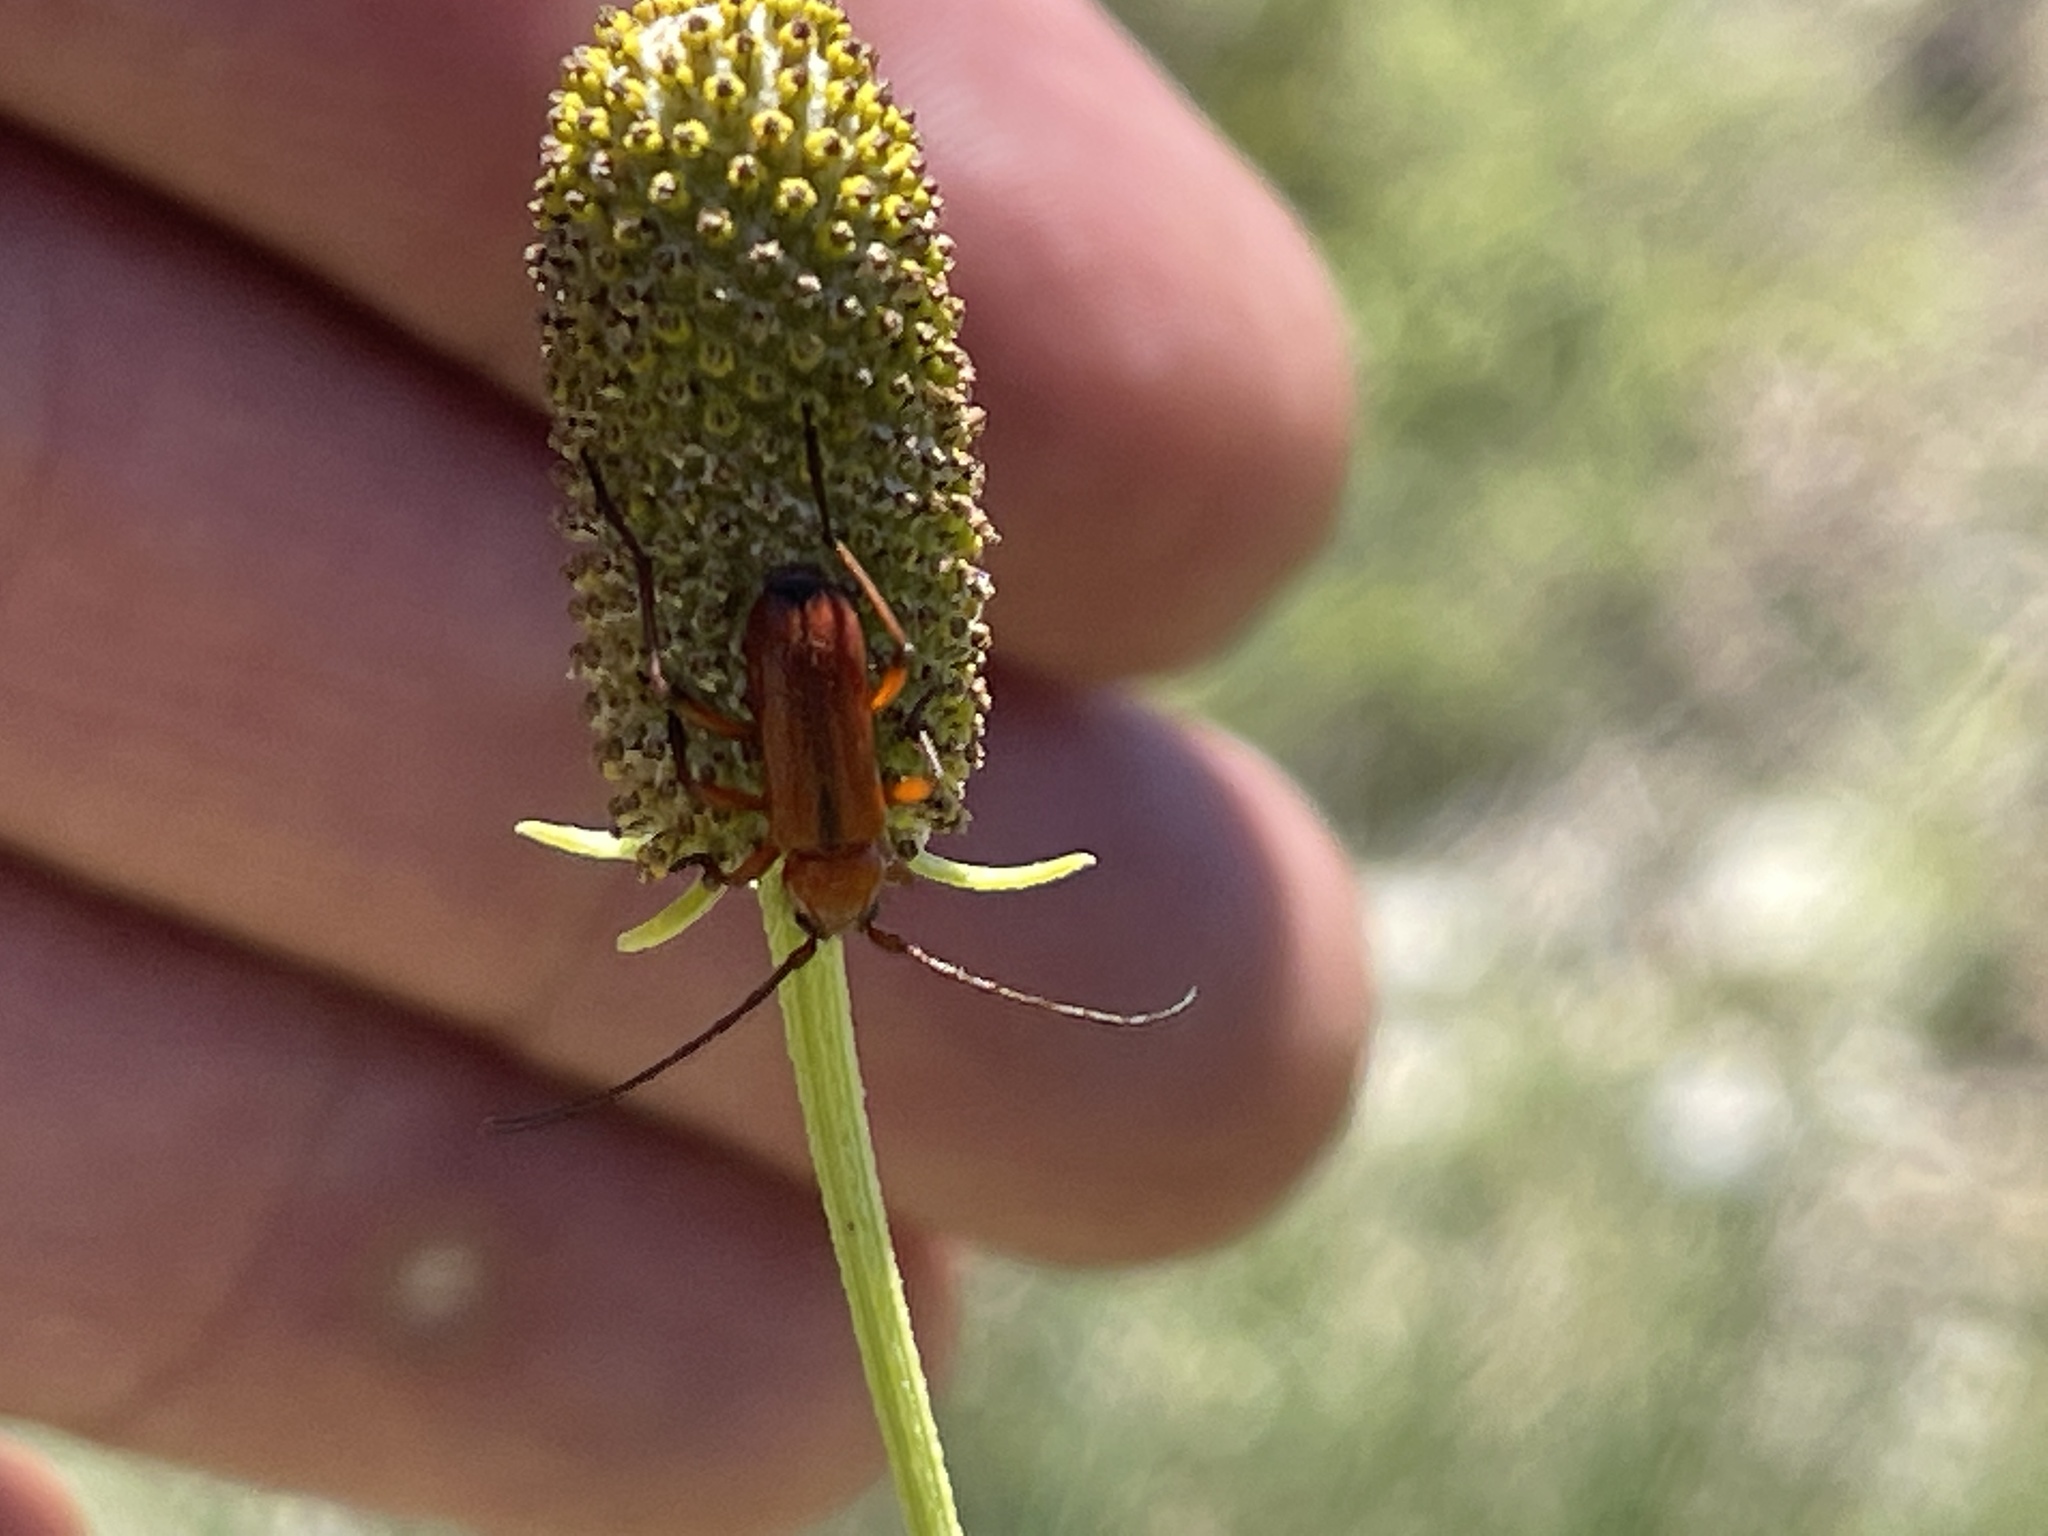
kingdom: Animalia
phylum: Arthropoda
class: Insecta
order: Coleoptera
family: Cerambycidae
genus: Batyle
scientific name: Batyle suturalis
